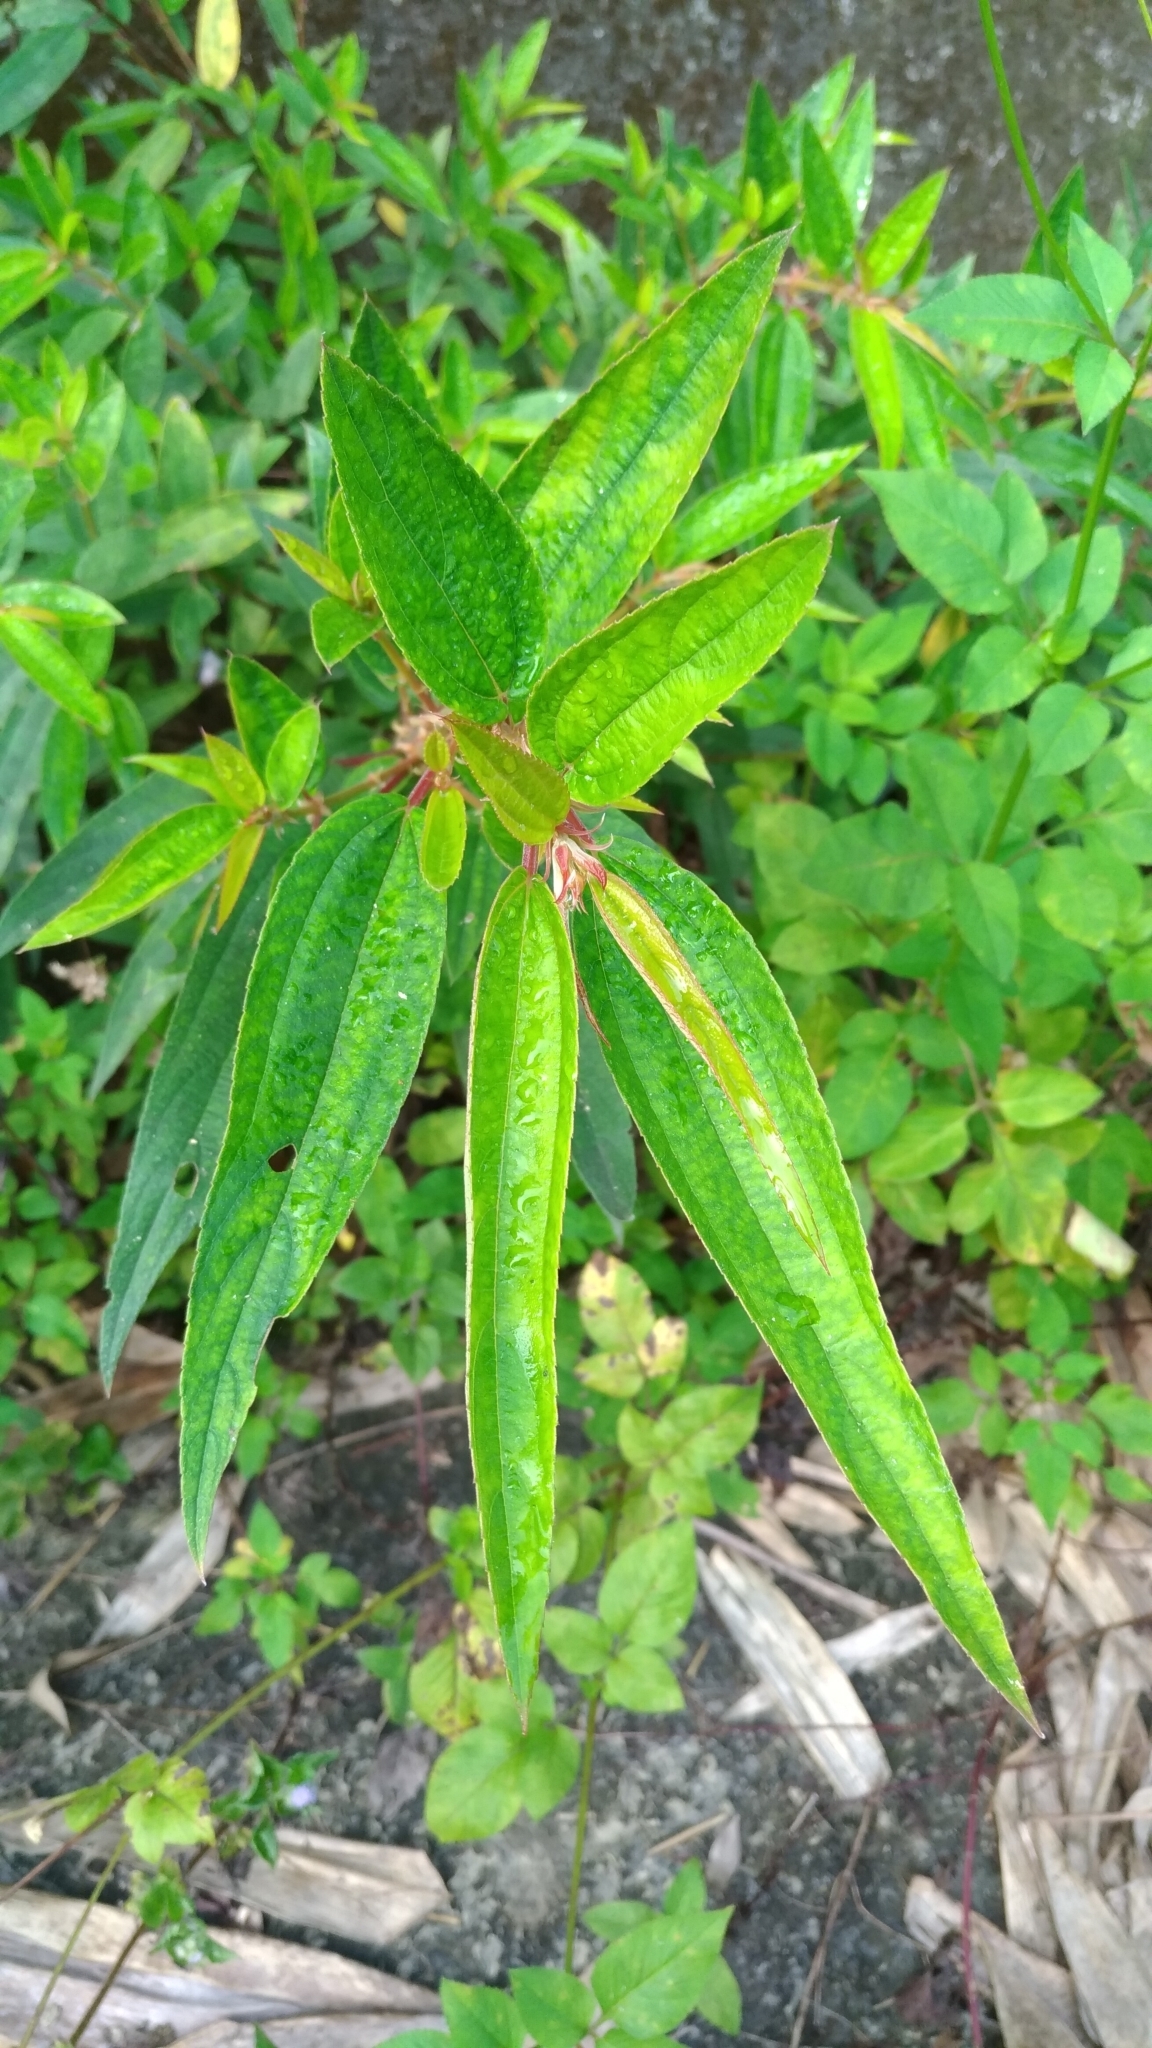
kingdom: Plantae
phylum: Tracheophyta
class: Magnoliopsida
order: Rosales
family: Urticaceae
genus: Boehmeria
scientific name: Boehmeria densiflora
